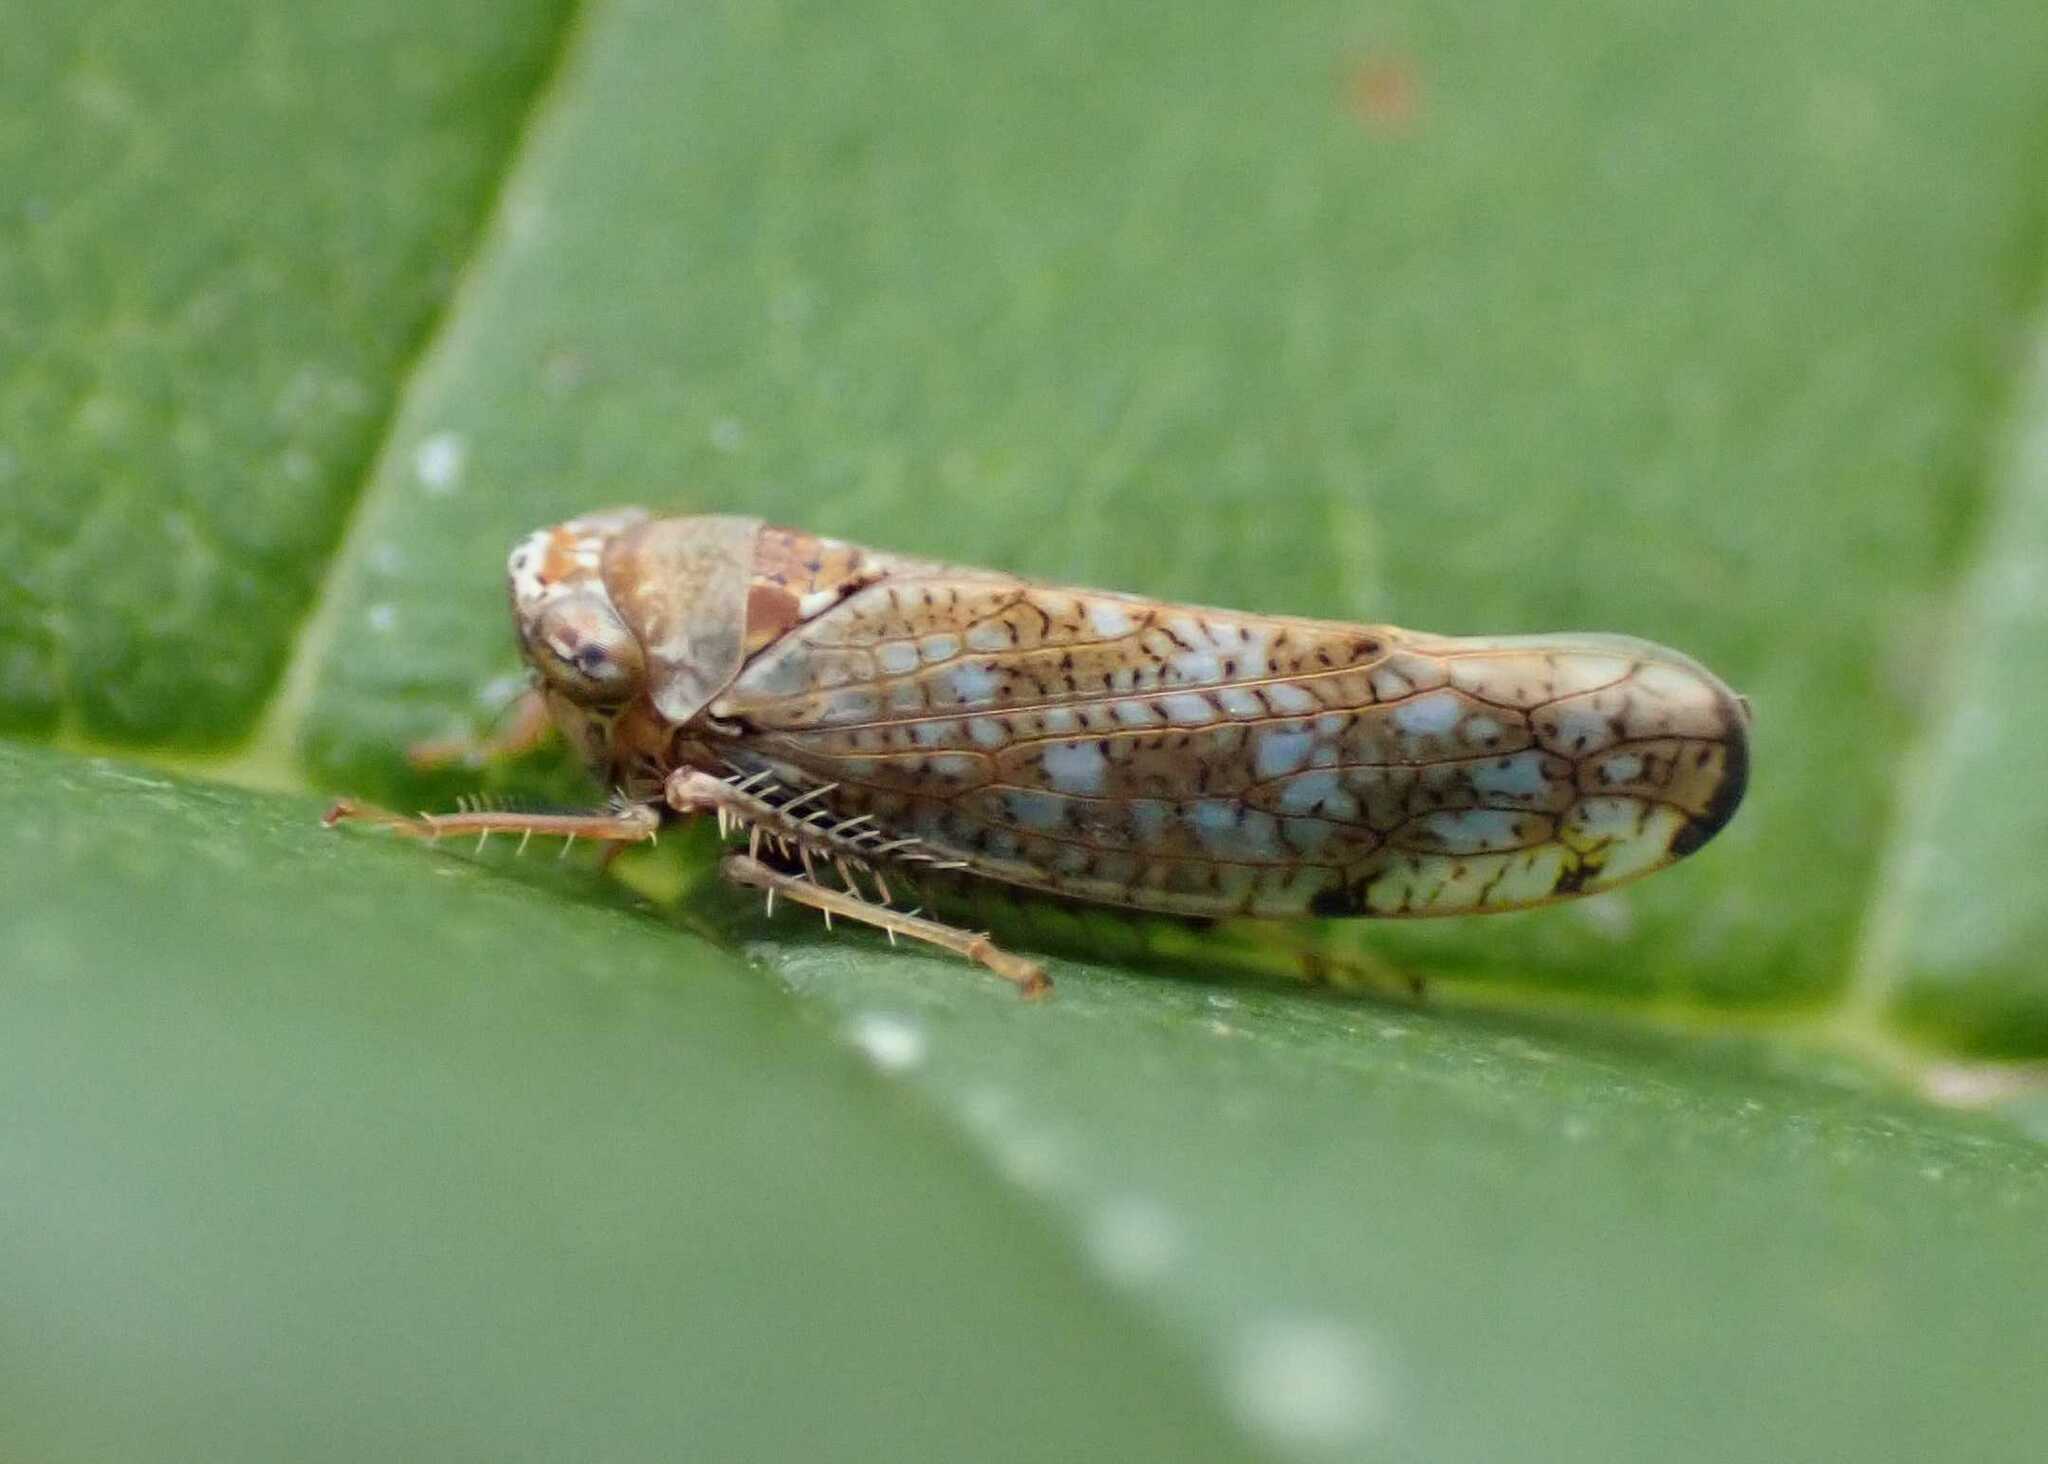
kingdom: Animalia
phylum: Arthropoda
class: Insecta
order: Hemiptera
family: Cicadellidae
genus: Orientus
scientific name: Orientus ishidae
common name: Japanese leafhopper
